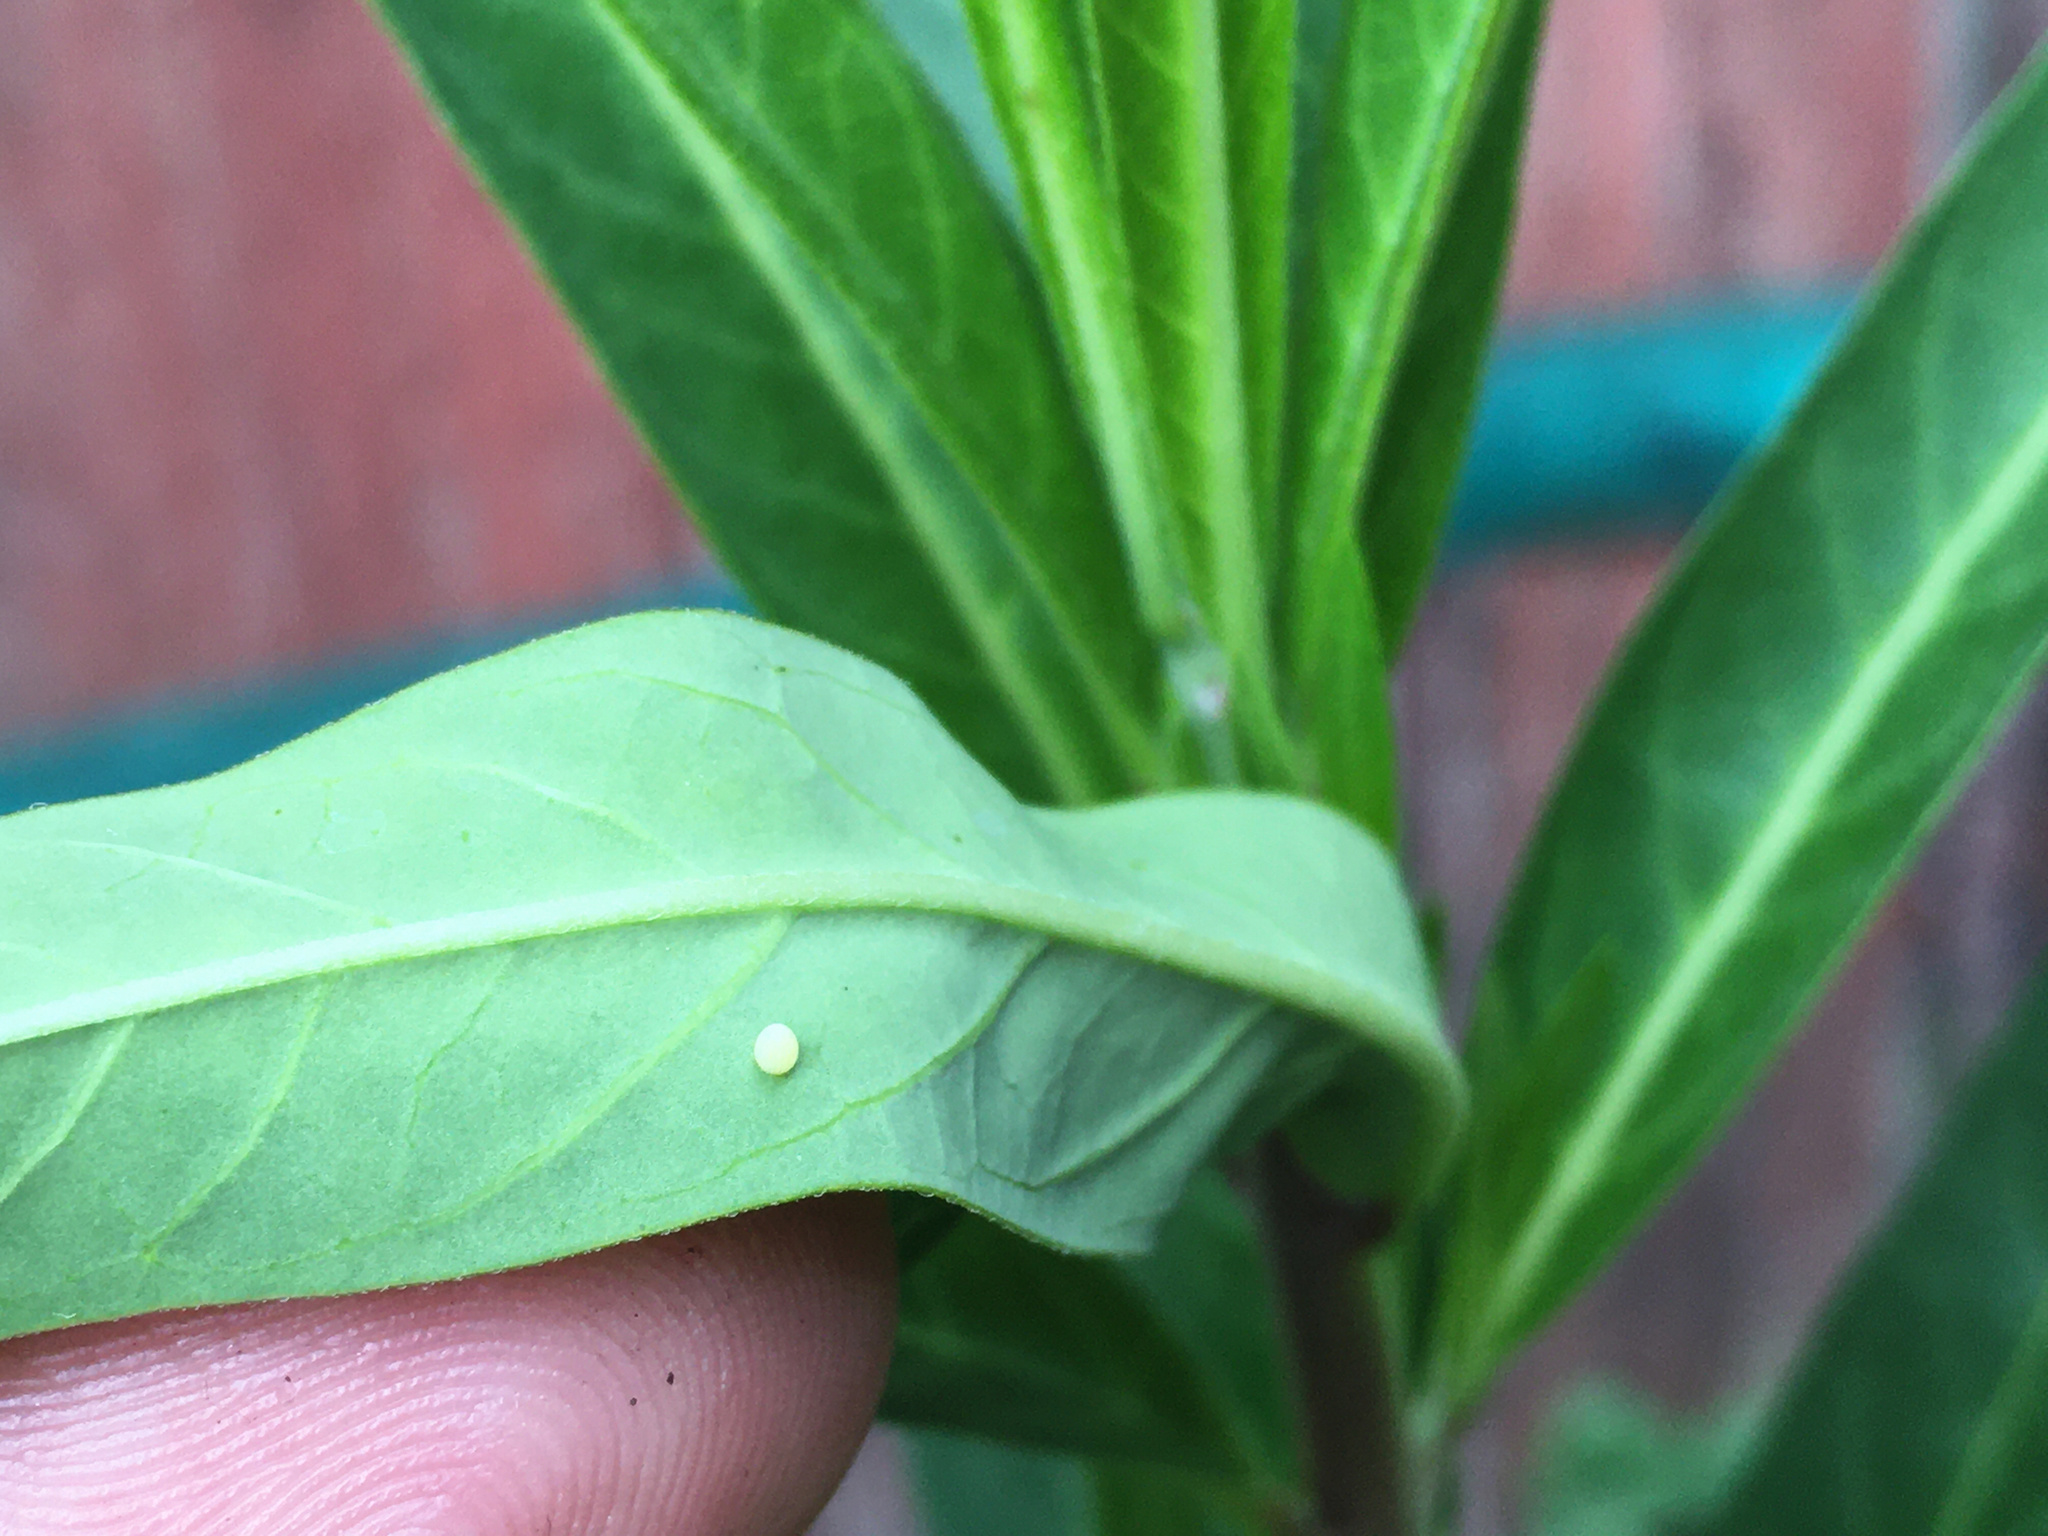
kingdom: Animalia
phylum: Arthropoda
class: Insecta
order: Lepidoptera
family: Nymphalidae
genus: Danaus
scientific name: Danaus plexippus
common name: Monarch
